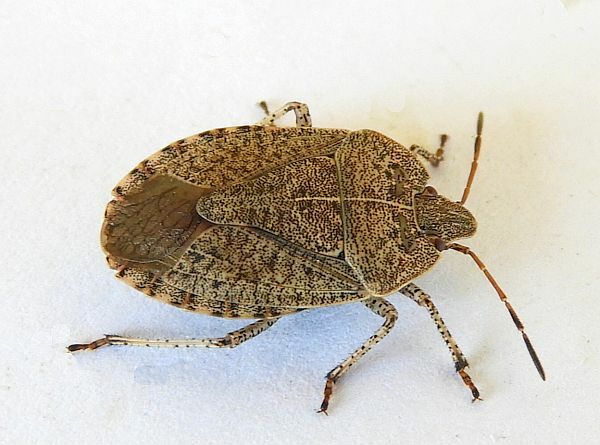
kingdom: Animalia
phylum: Arthropoda
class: Insecta
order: Hemiptera
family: Pentatomidae
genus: Menecles
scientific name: Menecles insertus
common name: Elf shoe stink bug
